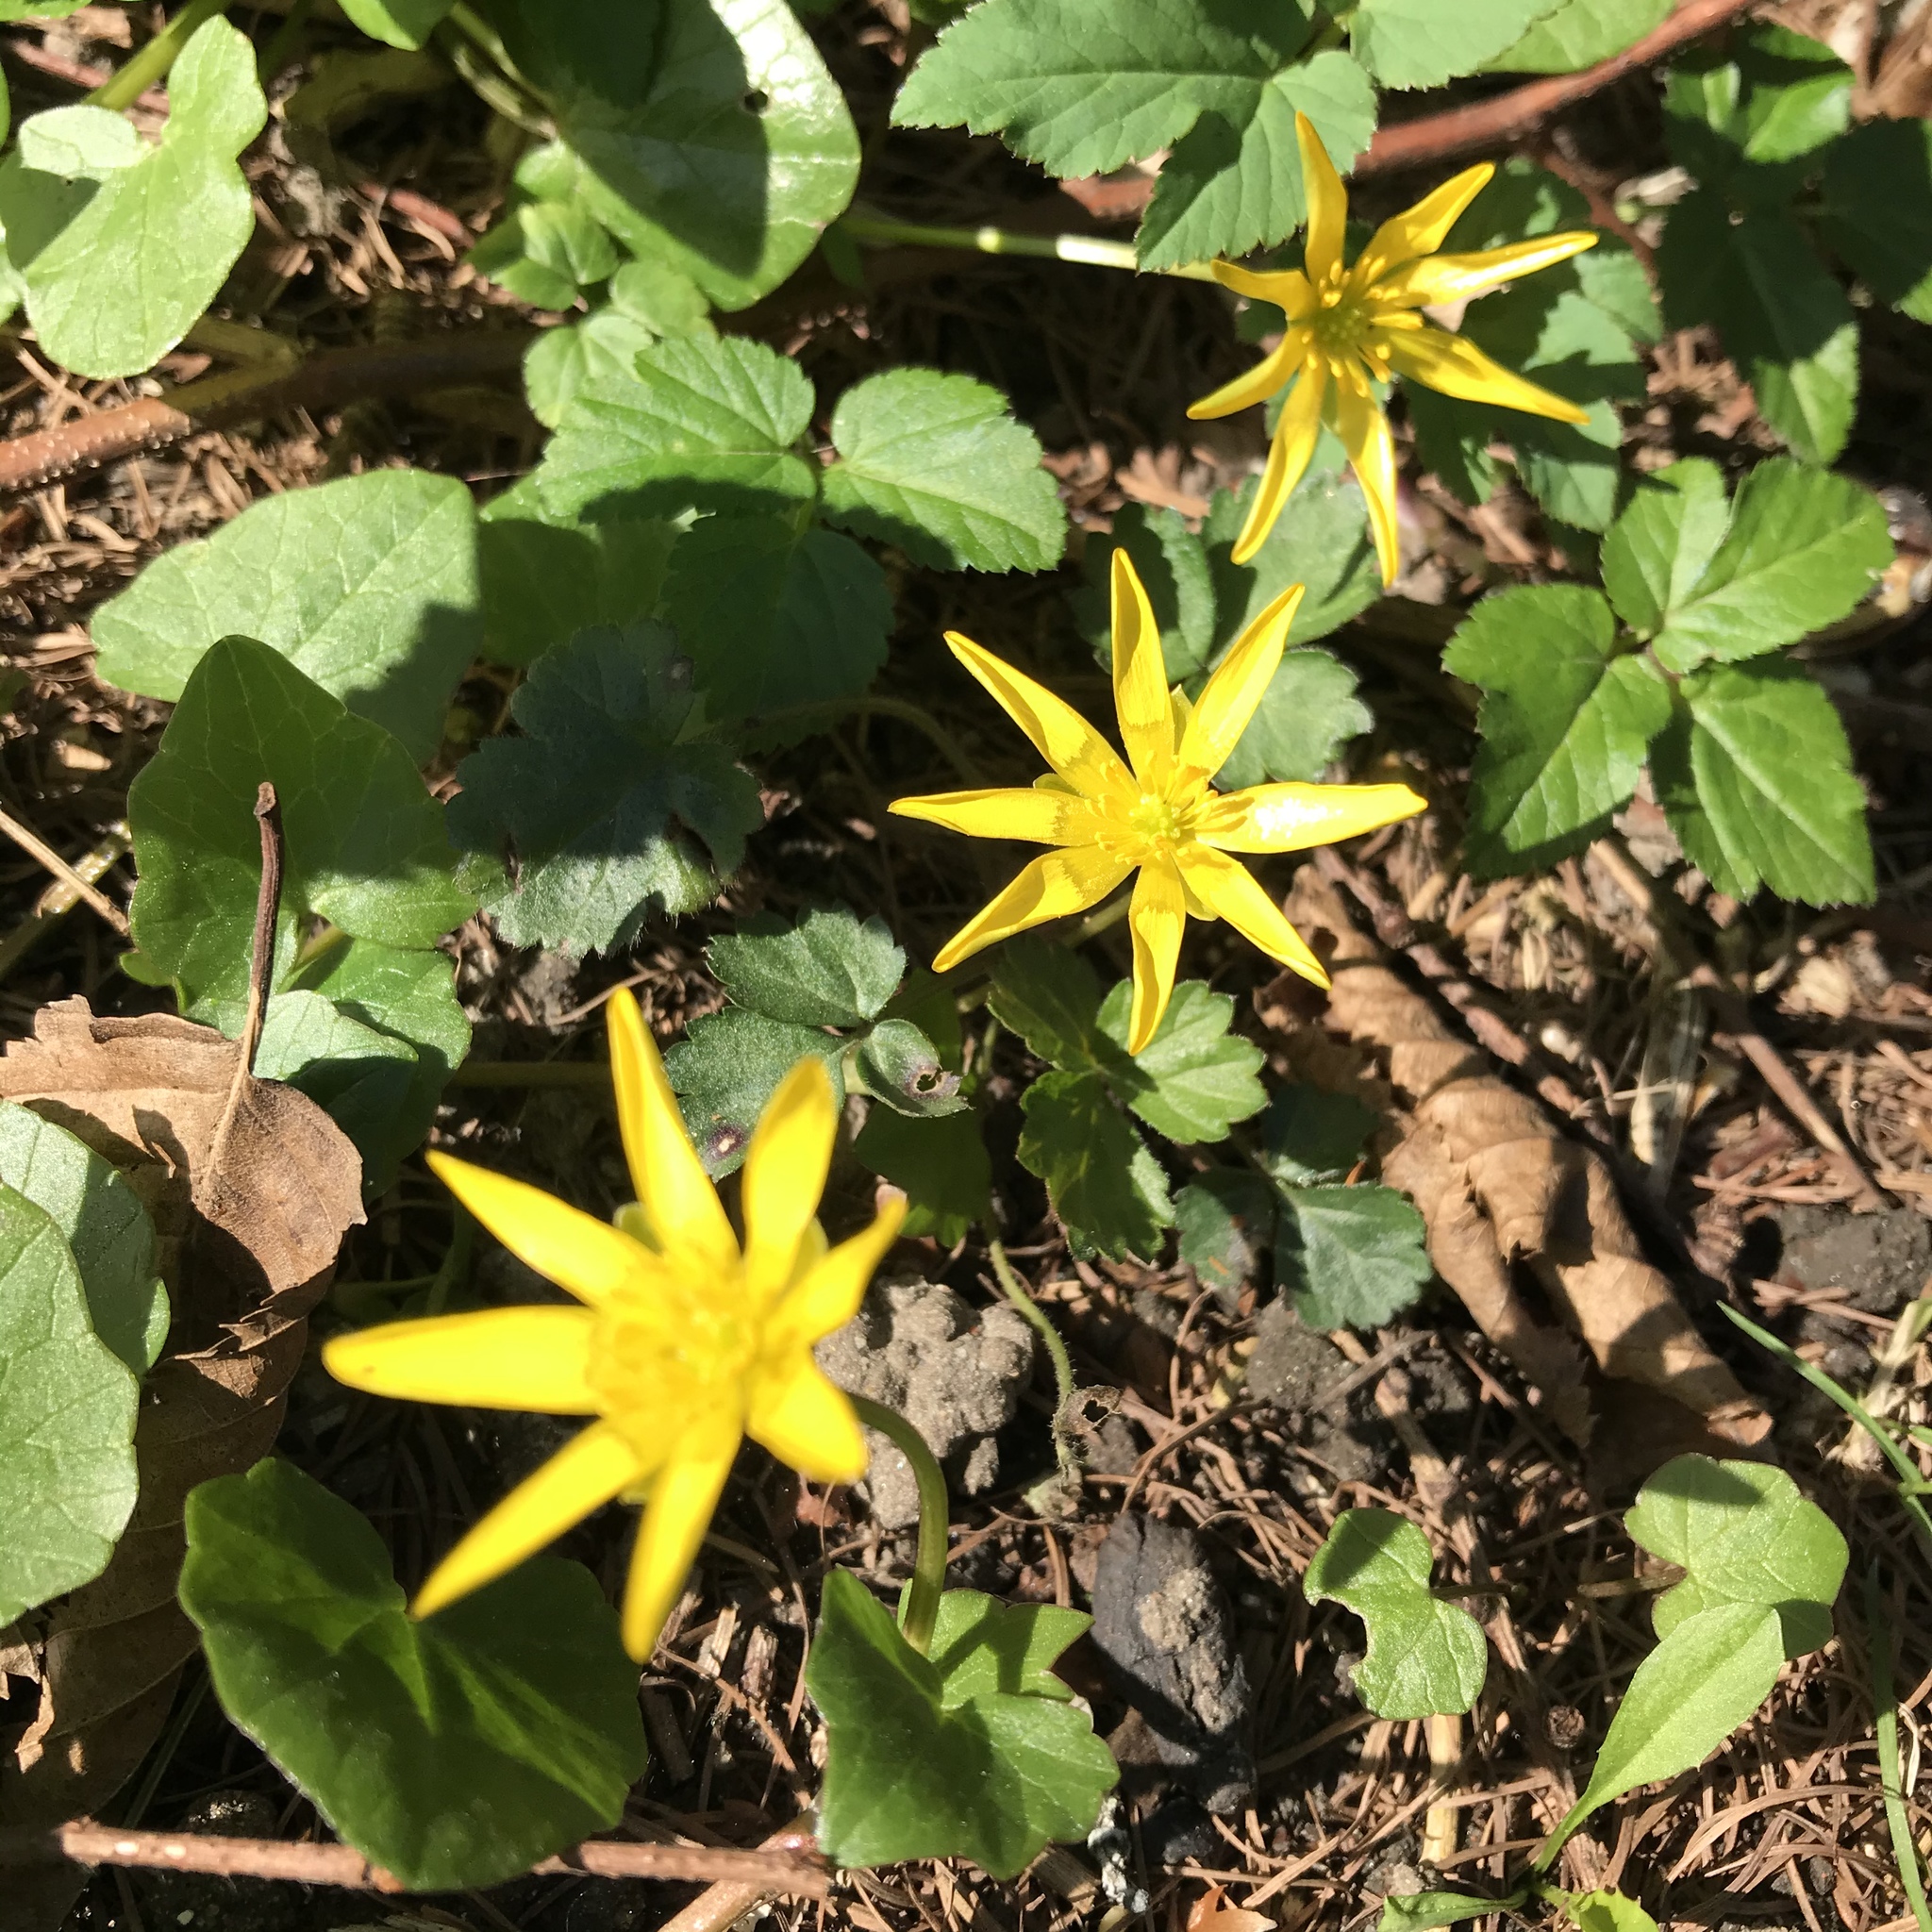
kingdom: Plantae
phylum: Tracheophyta
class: Magnoliopsida
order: Ranunculales
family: Ranunculaceae
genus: Ficaria
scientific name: Ficaria verna
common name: Lesser celandine
